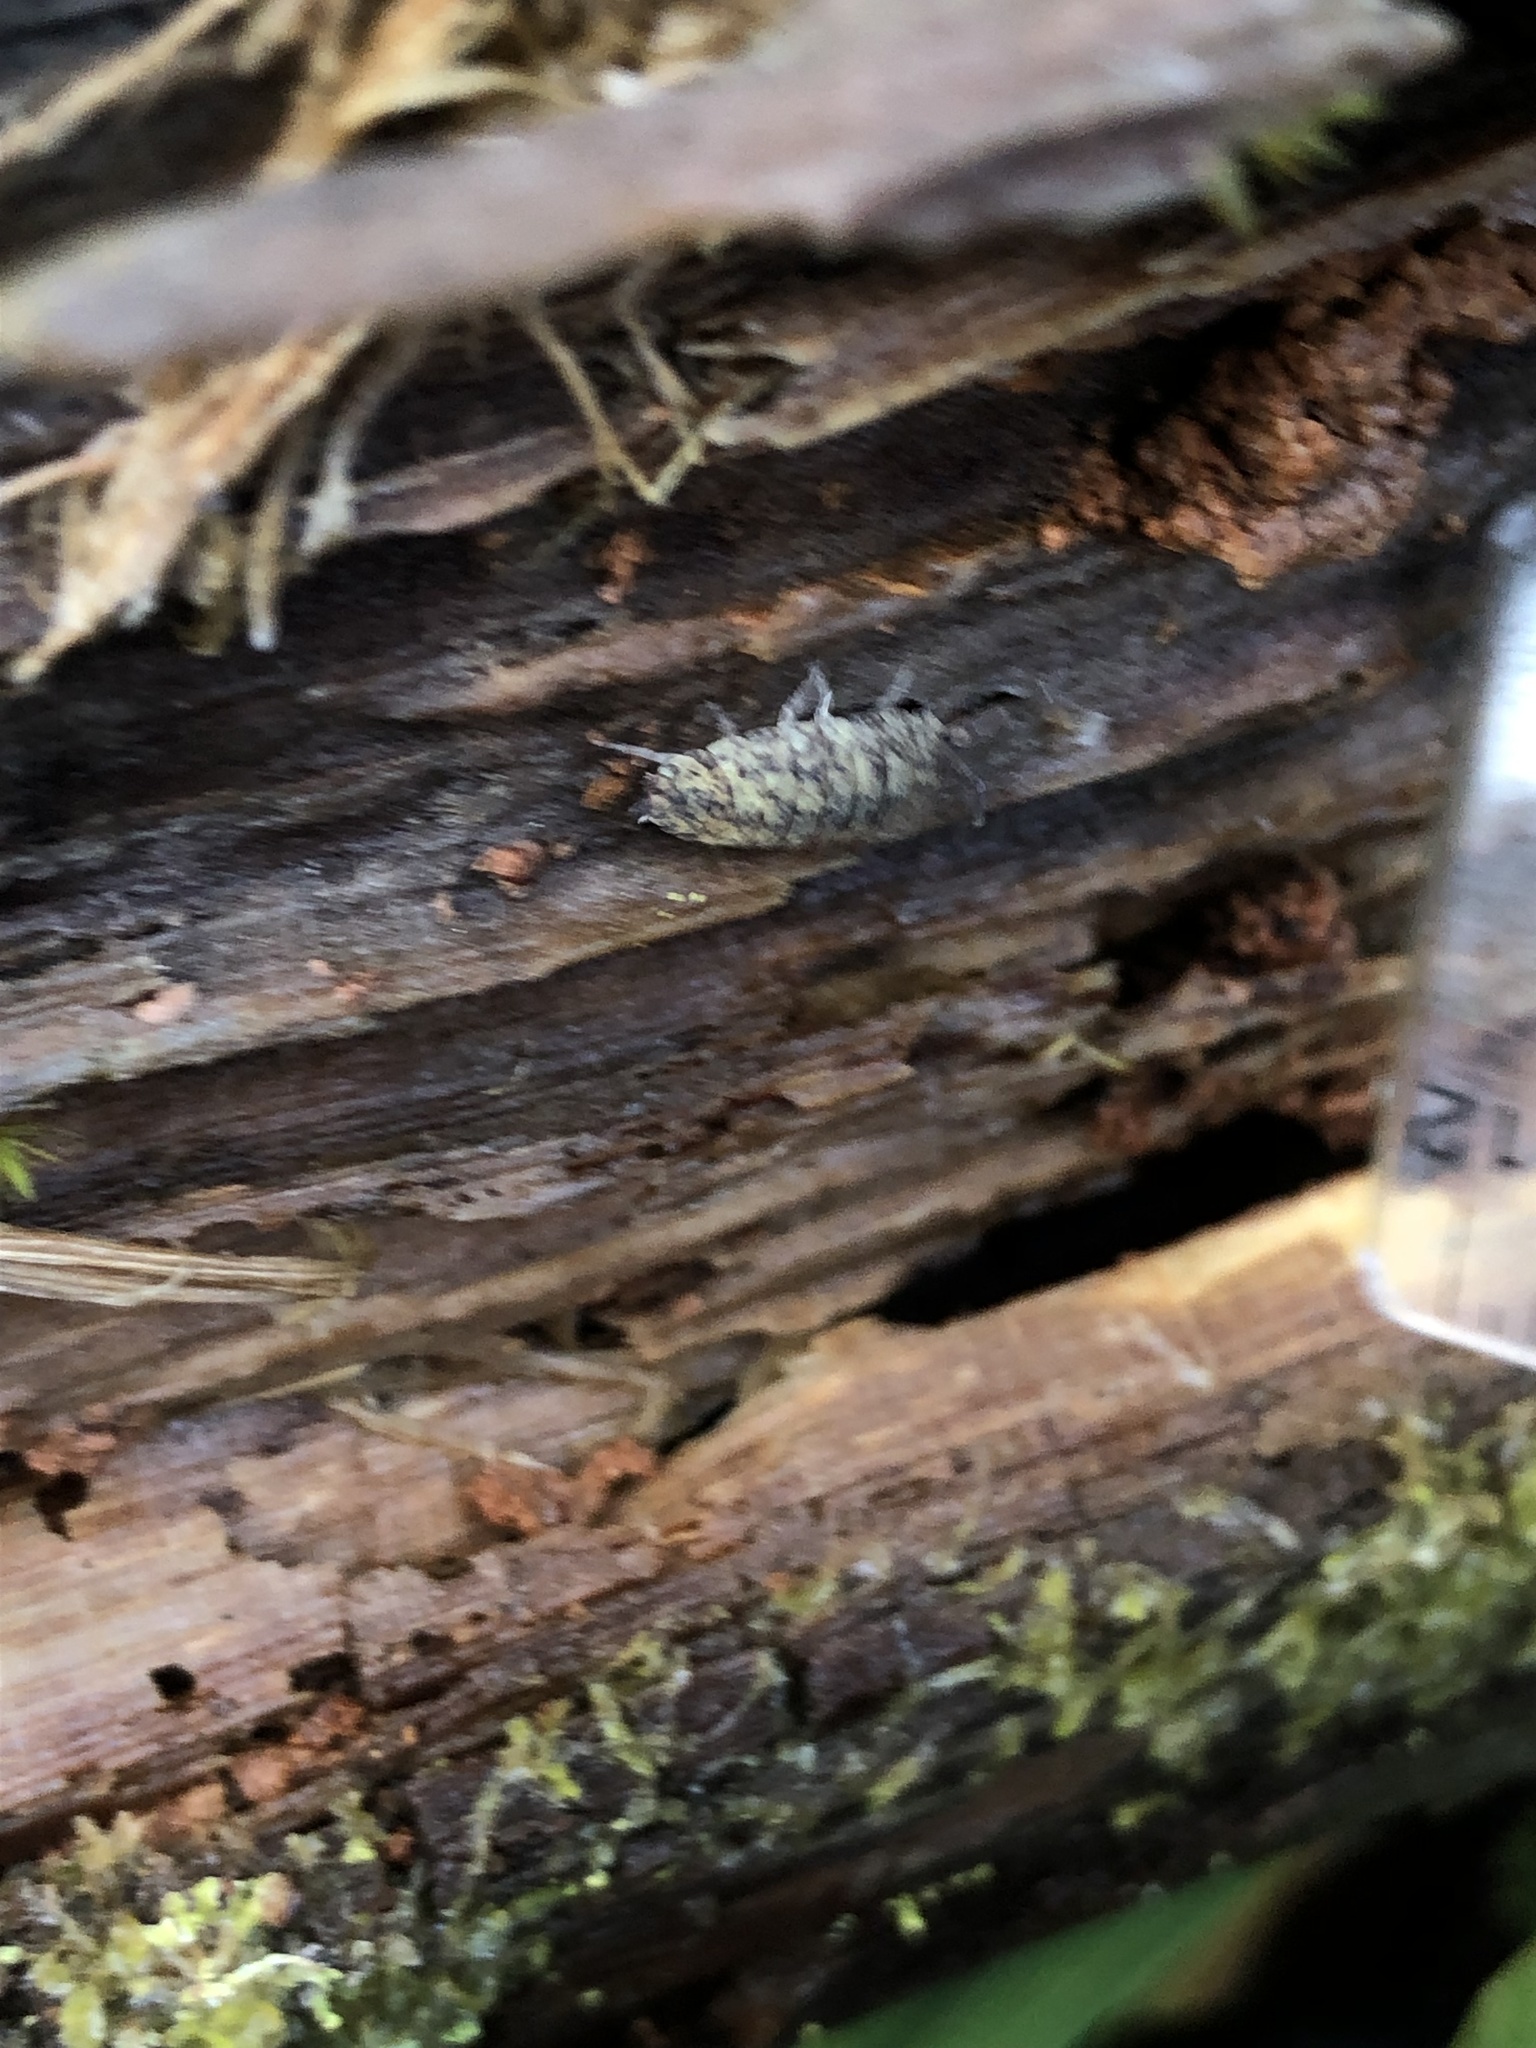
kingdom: Animalia
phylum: Arthropoda
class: Malacostraca
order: Isopoda
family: Porcellionidae
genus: Porcellio
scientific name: Porcellio scaber
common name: Common rough woodlouse
